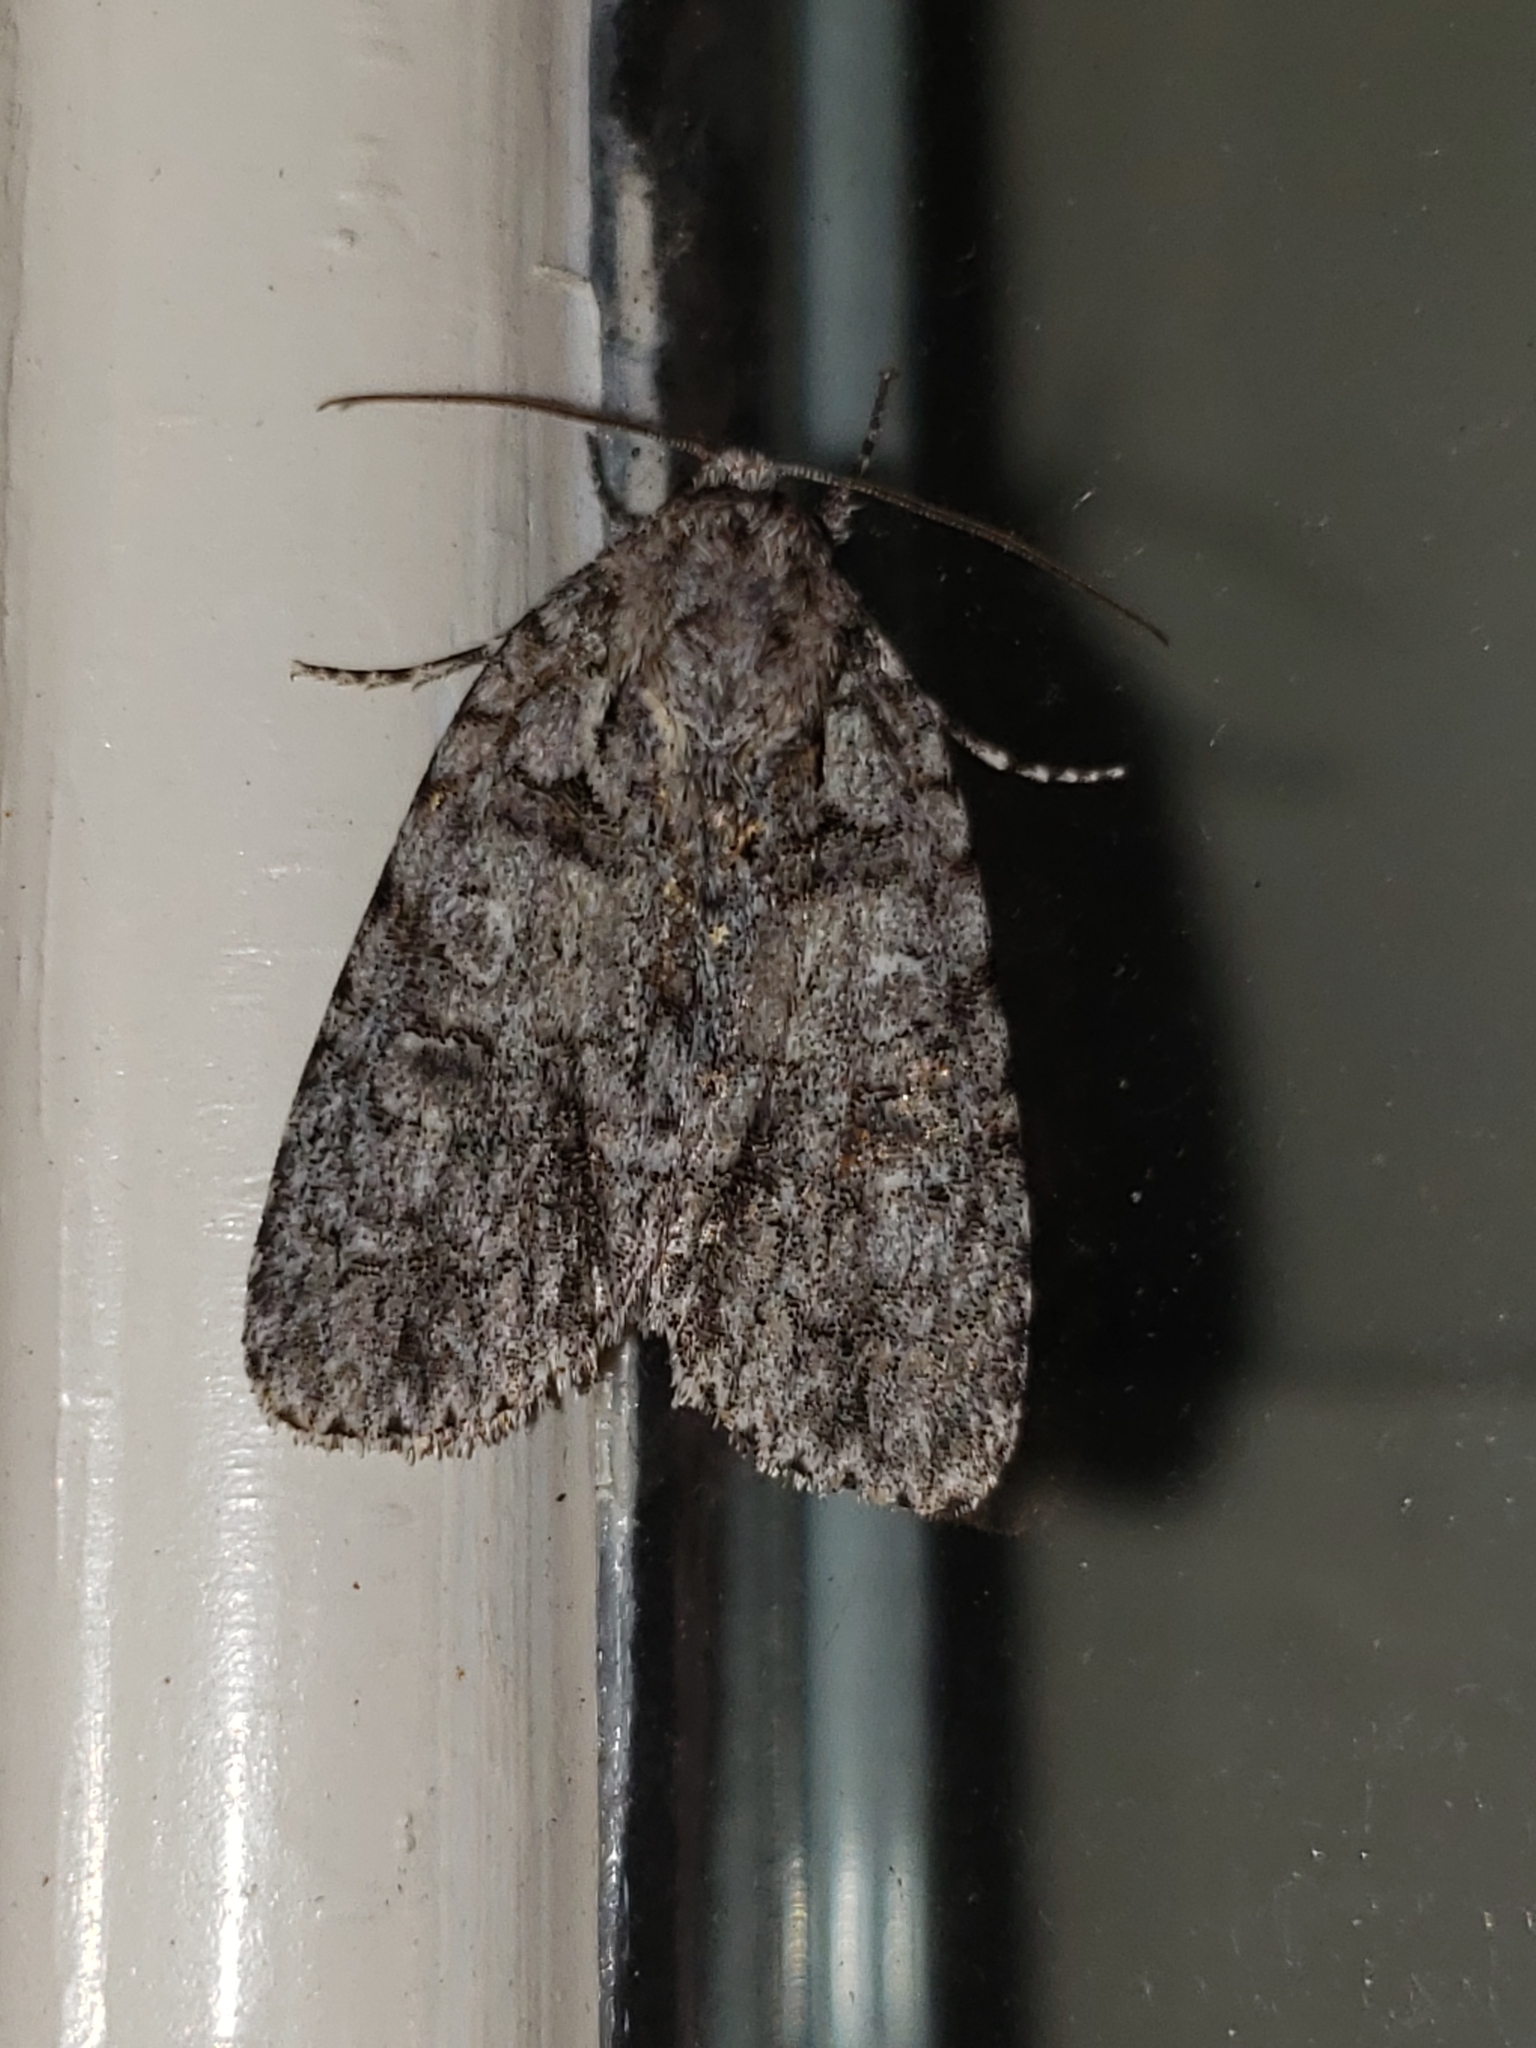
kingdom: Animalia
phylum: Arthropoda
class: Insecta
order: Lepidoptera
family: Noctuidae
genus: Acronicta
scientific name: Acronicta increta
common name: Eclipsed oak dagger
